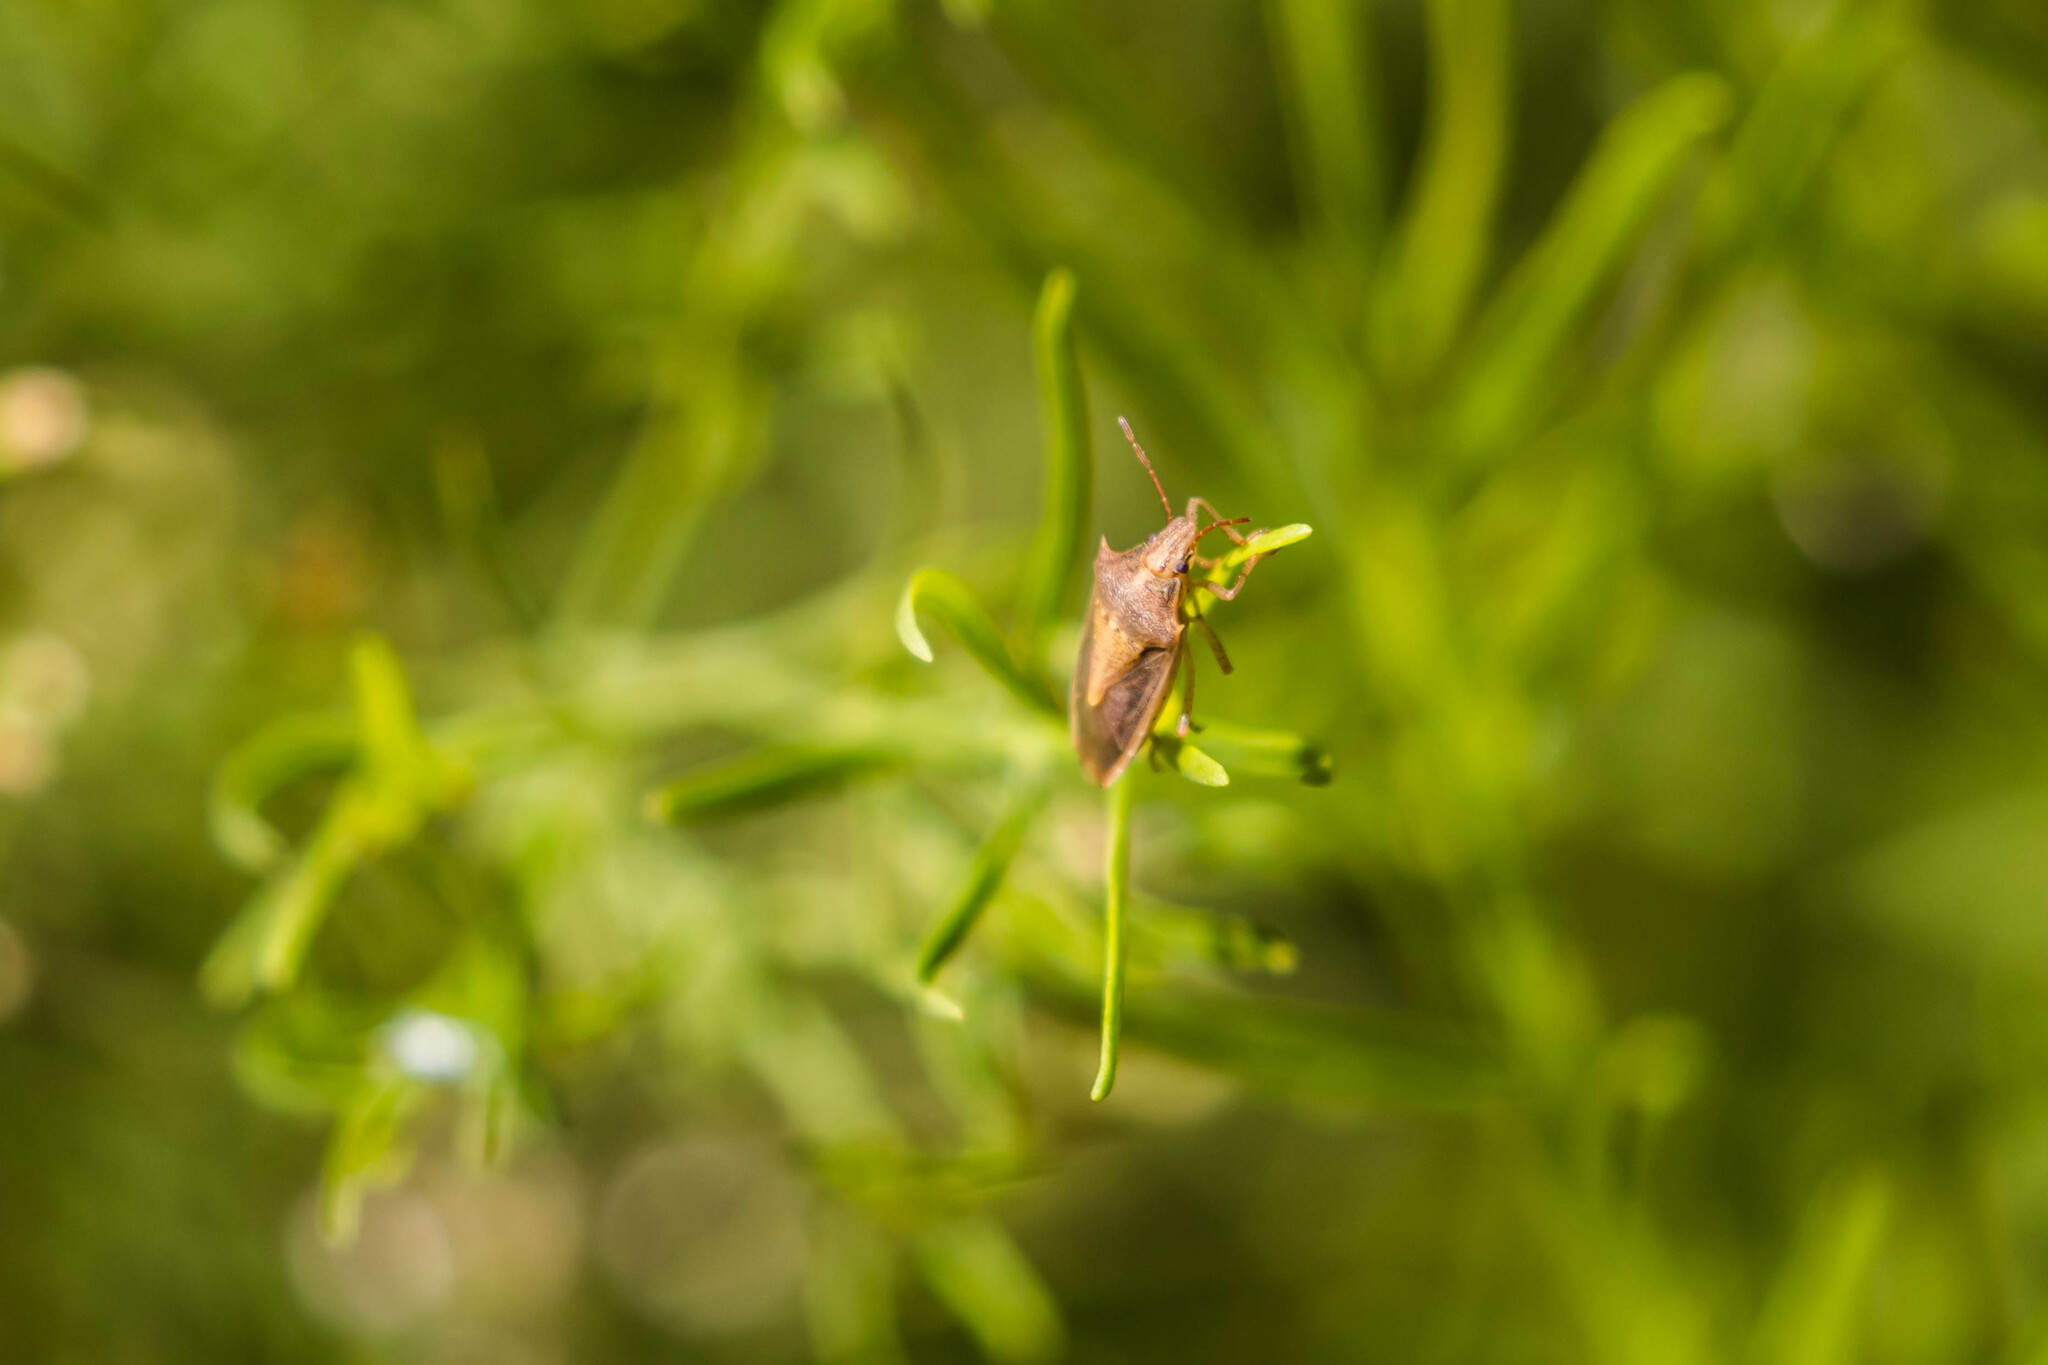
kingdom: Animalia
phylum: Arthropoda
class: Insecta
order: Hemiptera
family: Pentatomidae
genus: Oebalus
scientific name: Oebalus pugnax
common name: Rice stink bug
